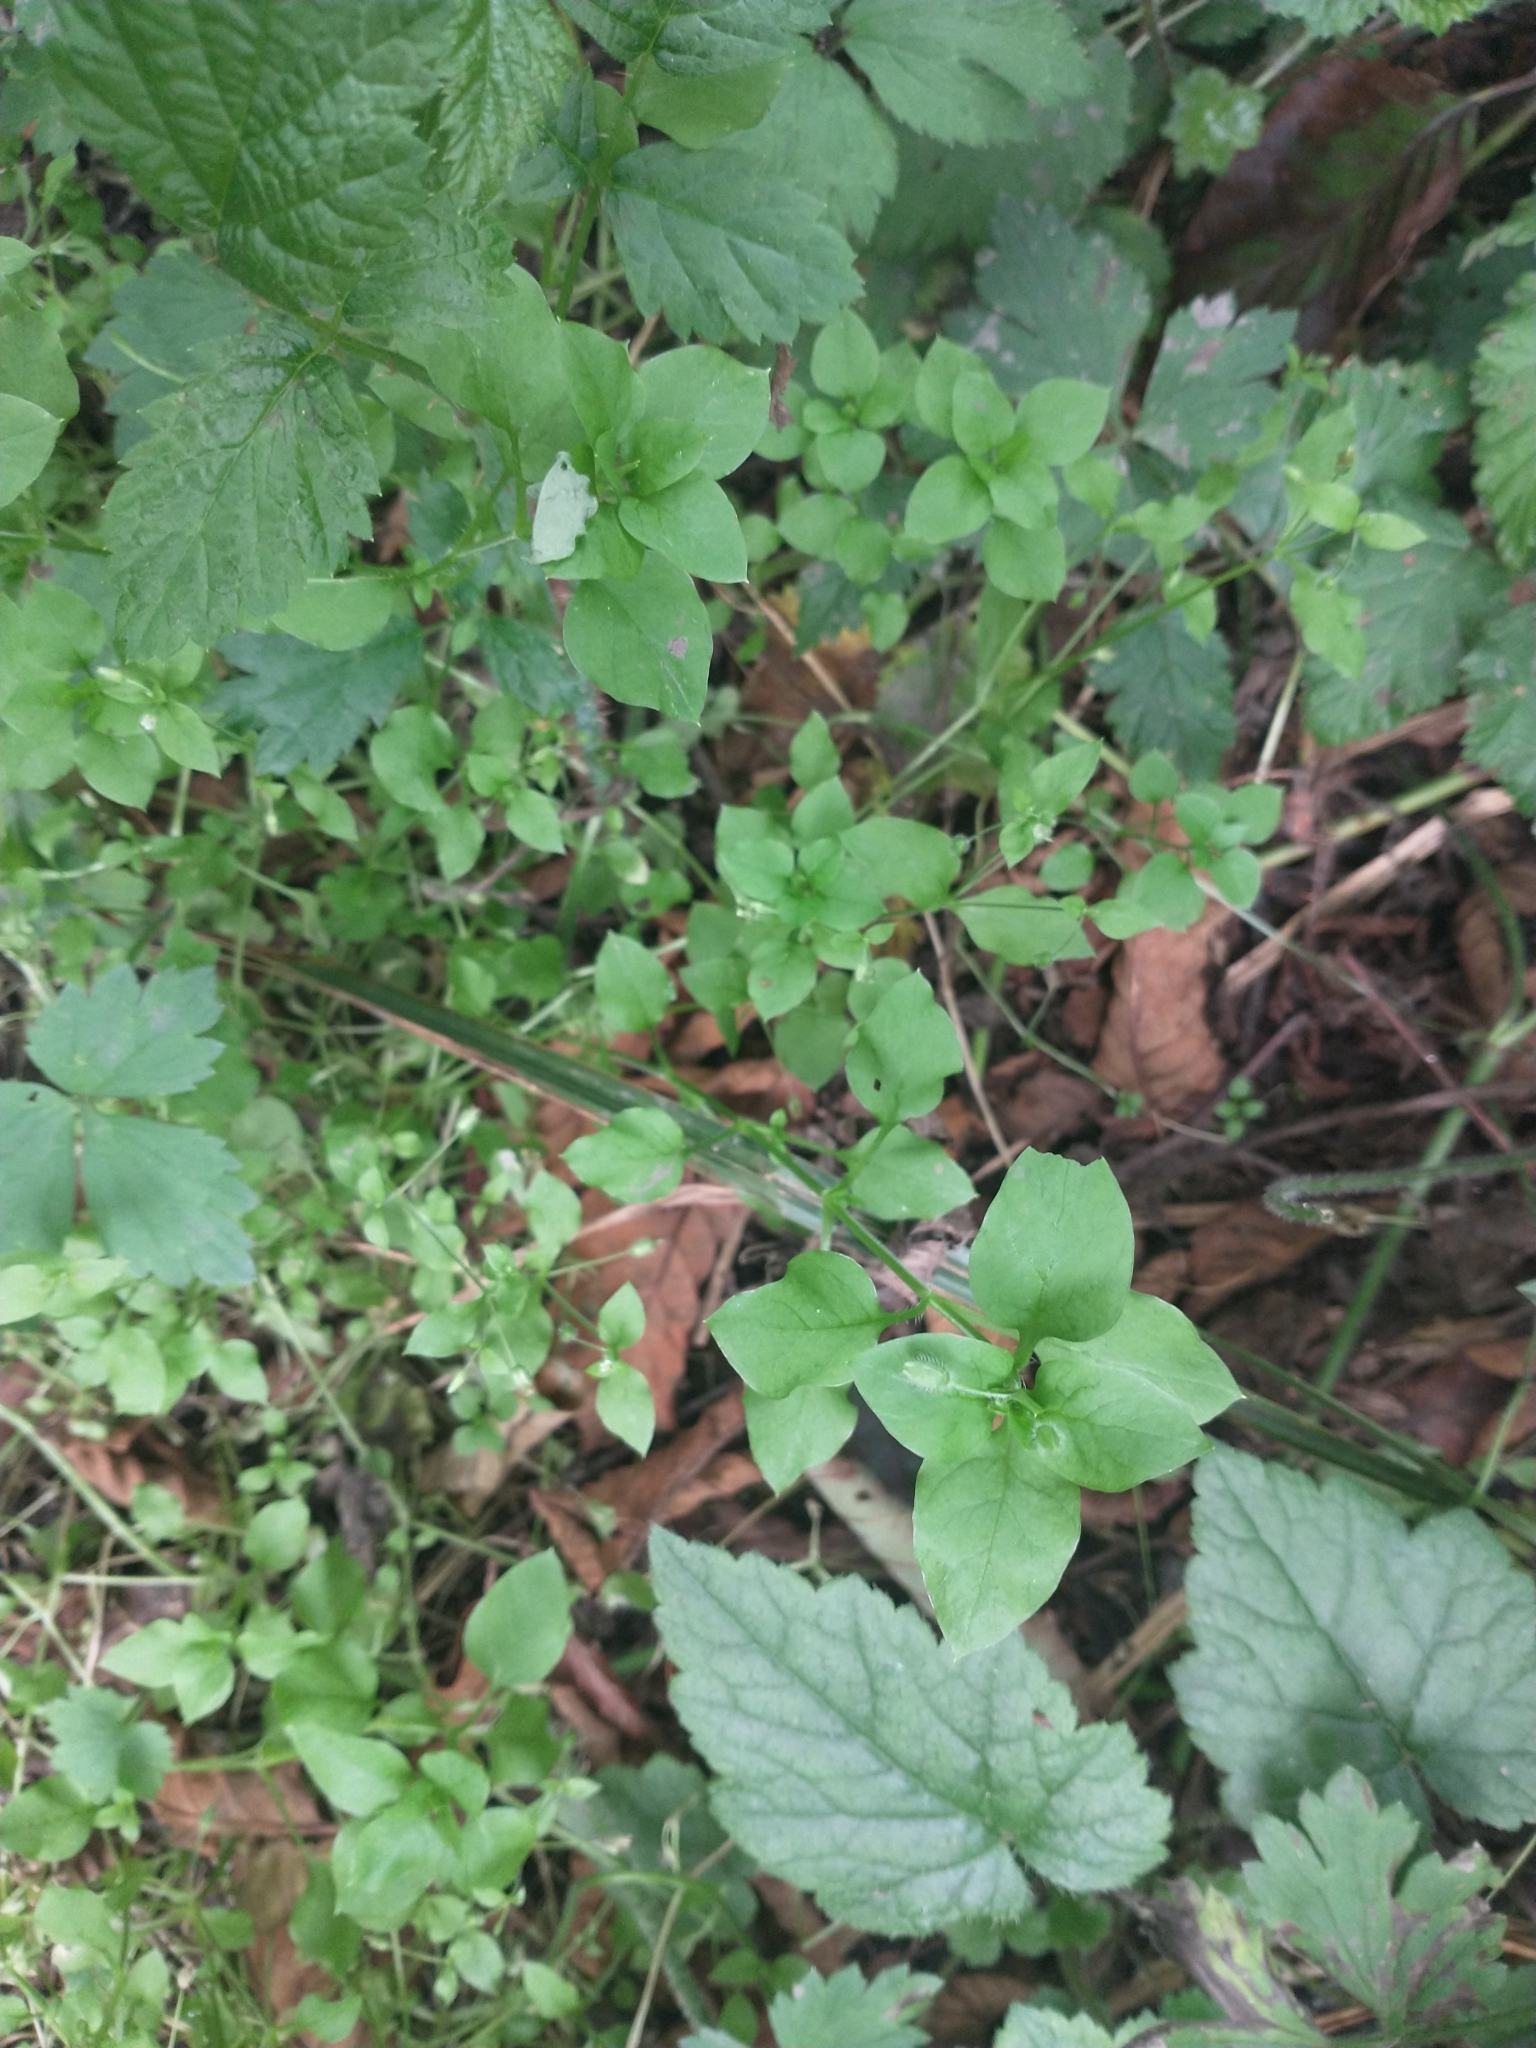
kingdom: Plantae
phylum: Tracheophyta
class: Magnoliopsida
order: Caryophyllales
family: Caryophyllaceae
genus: Stellaria
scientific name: Stellaria media
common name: Common chickweed
